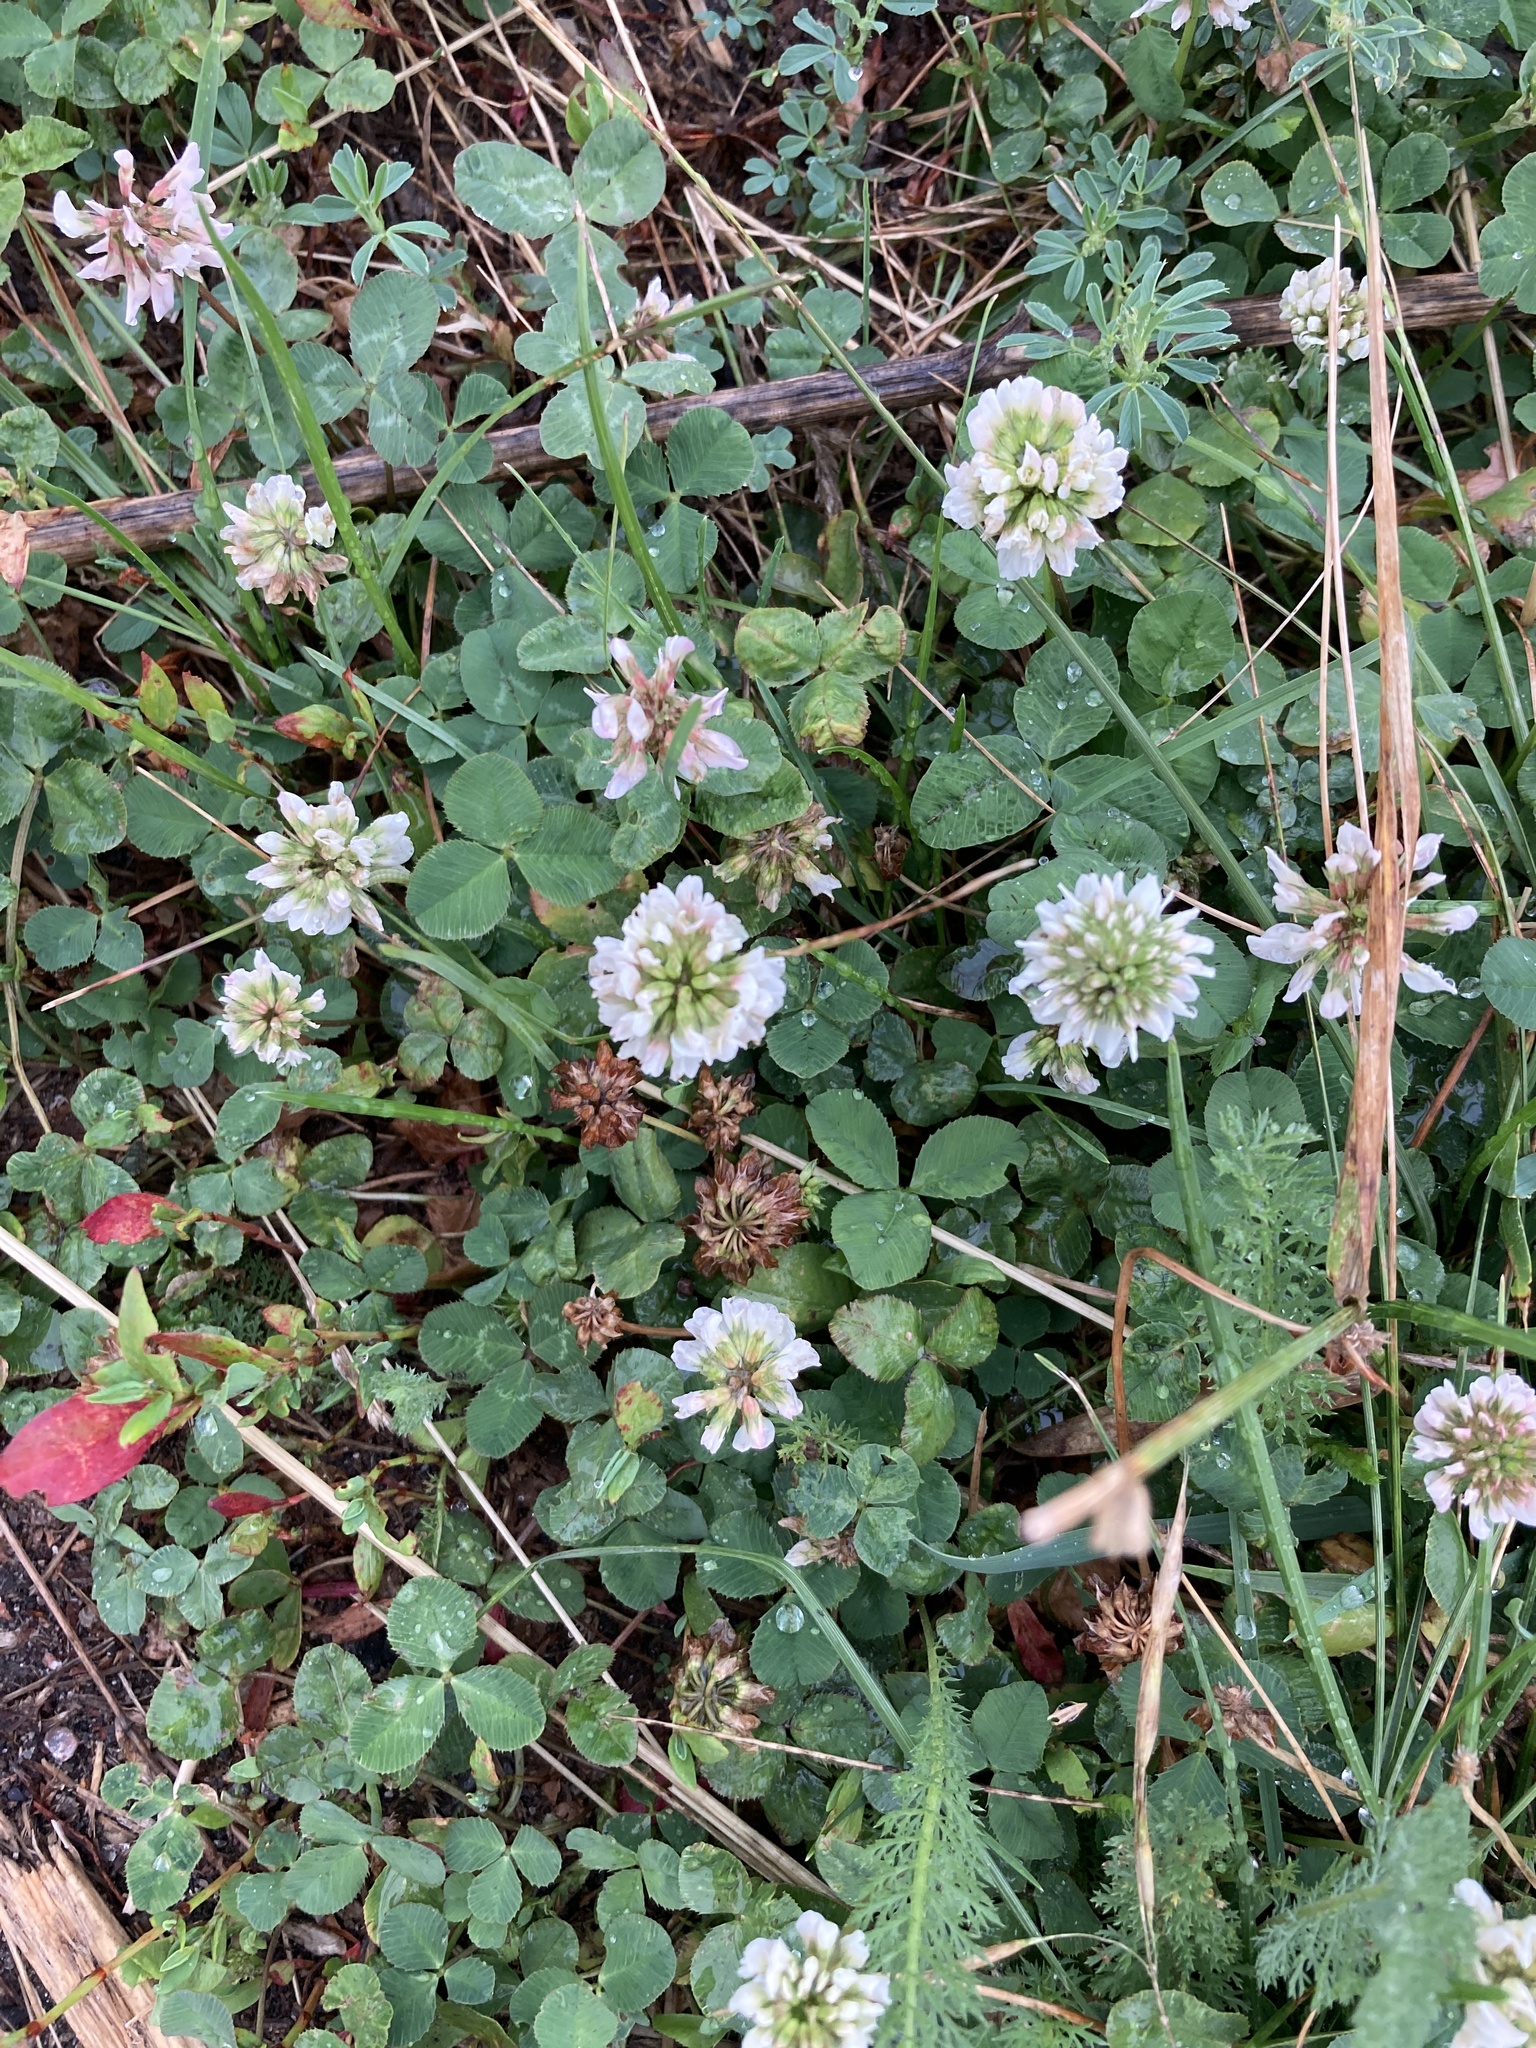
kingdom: Plantae
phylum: Tracheophyta
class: Magnoliopsida
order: Fabales
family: Fabaceae
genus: Trifolium
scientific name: Trifolium repens
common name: White clover
